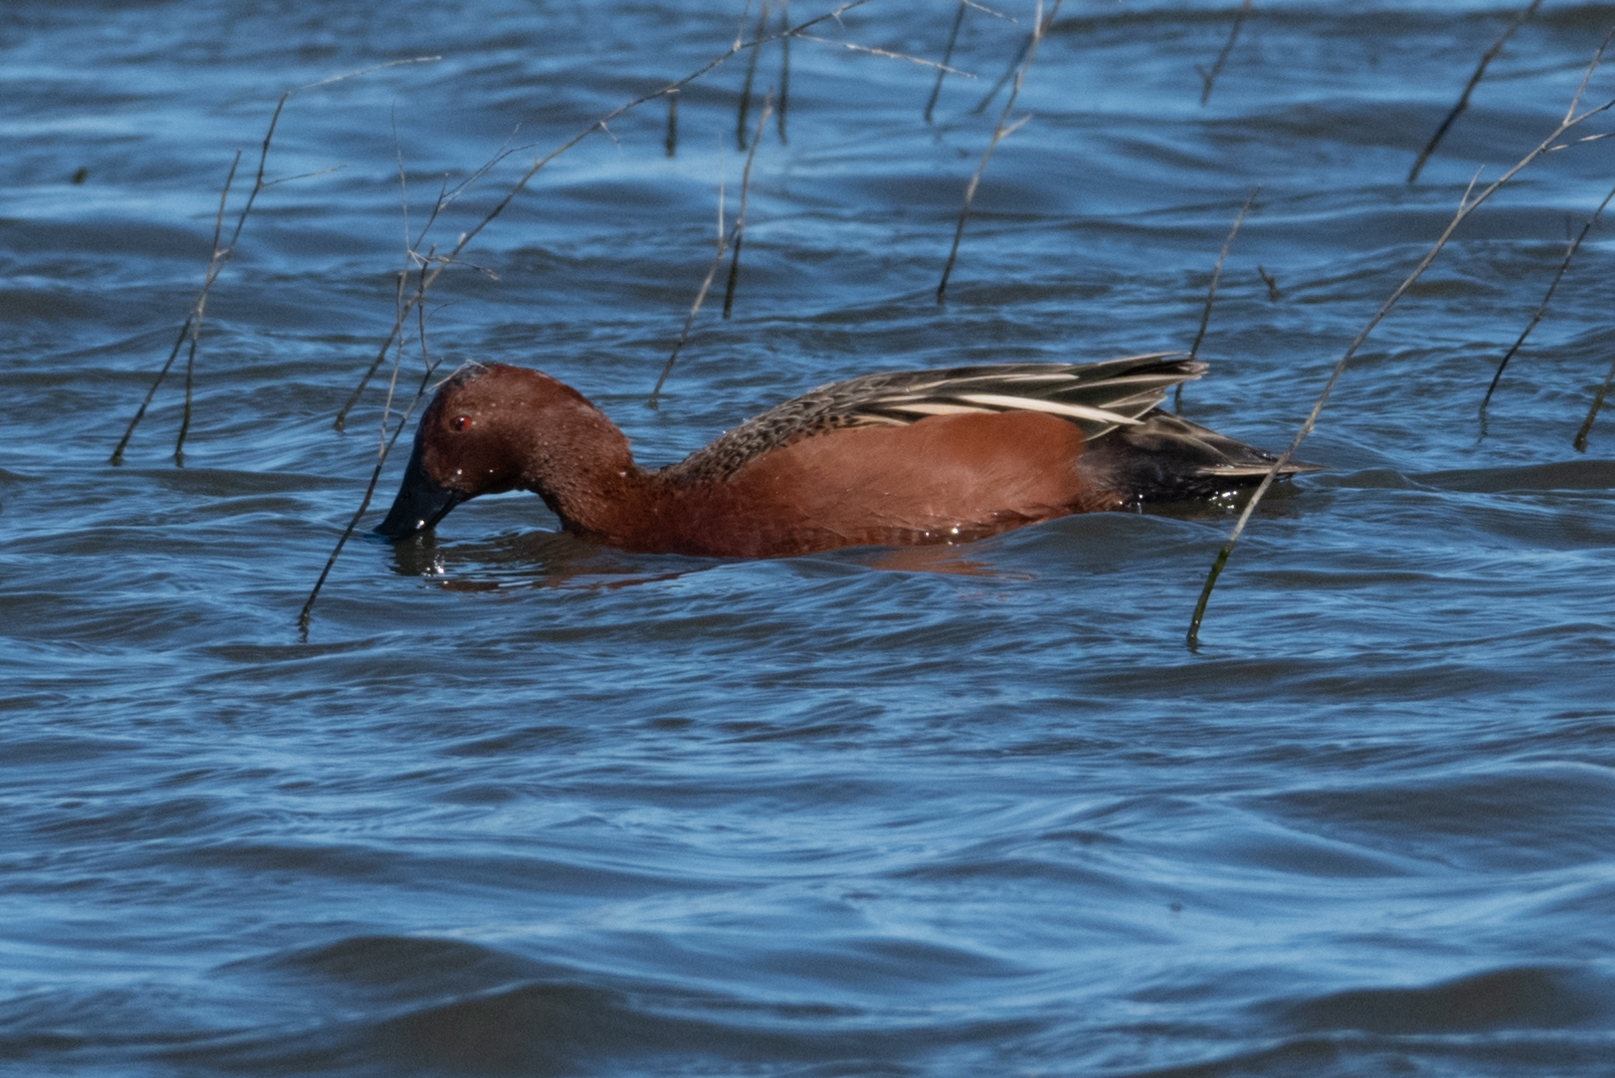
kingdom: Animalia
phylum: Chordata
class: Aves
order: Anseriformes
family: Anatidae
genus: Spatula
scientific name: Spatula cyanoptera
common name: Cinnamon teal
